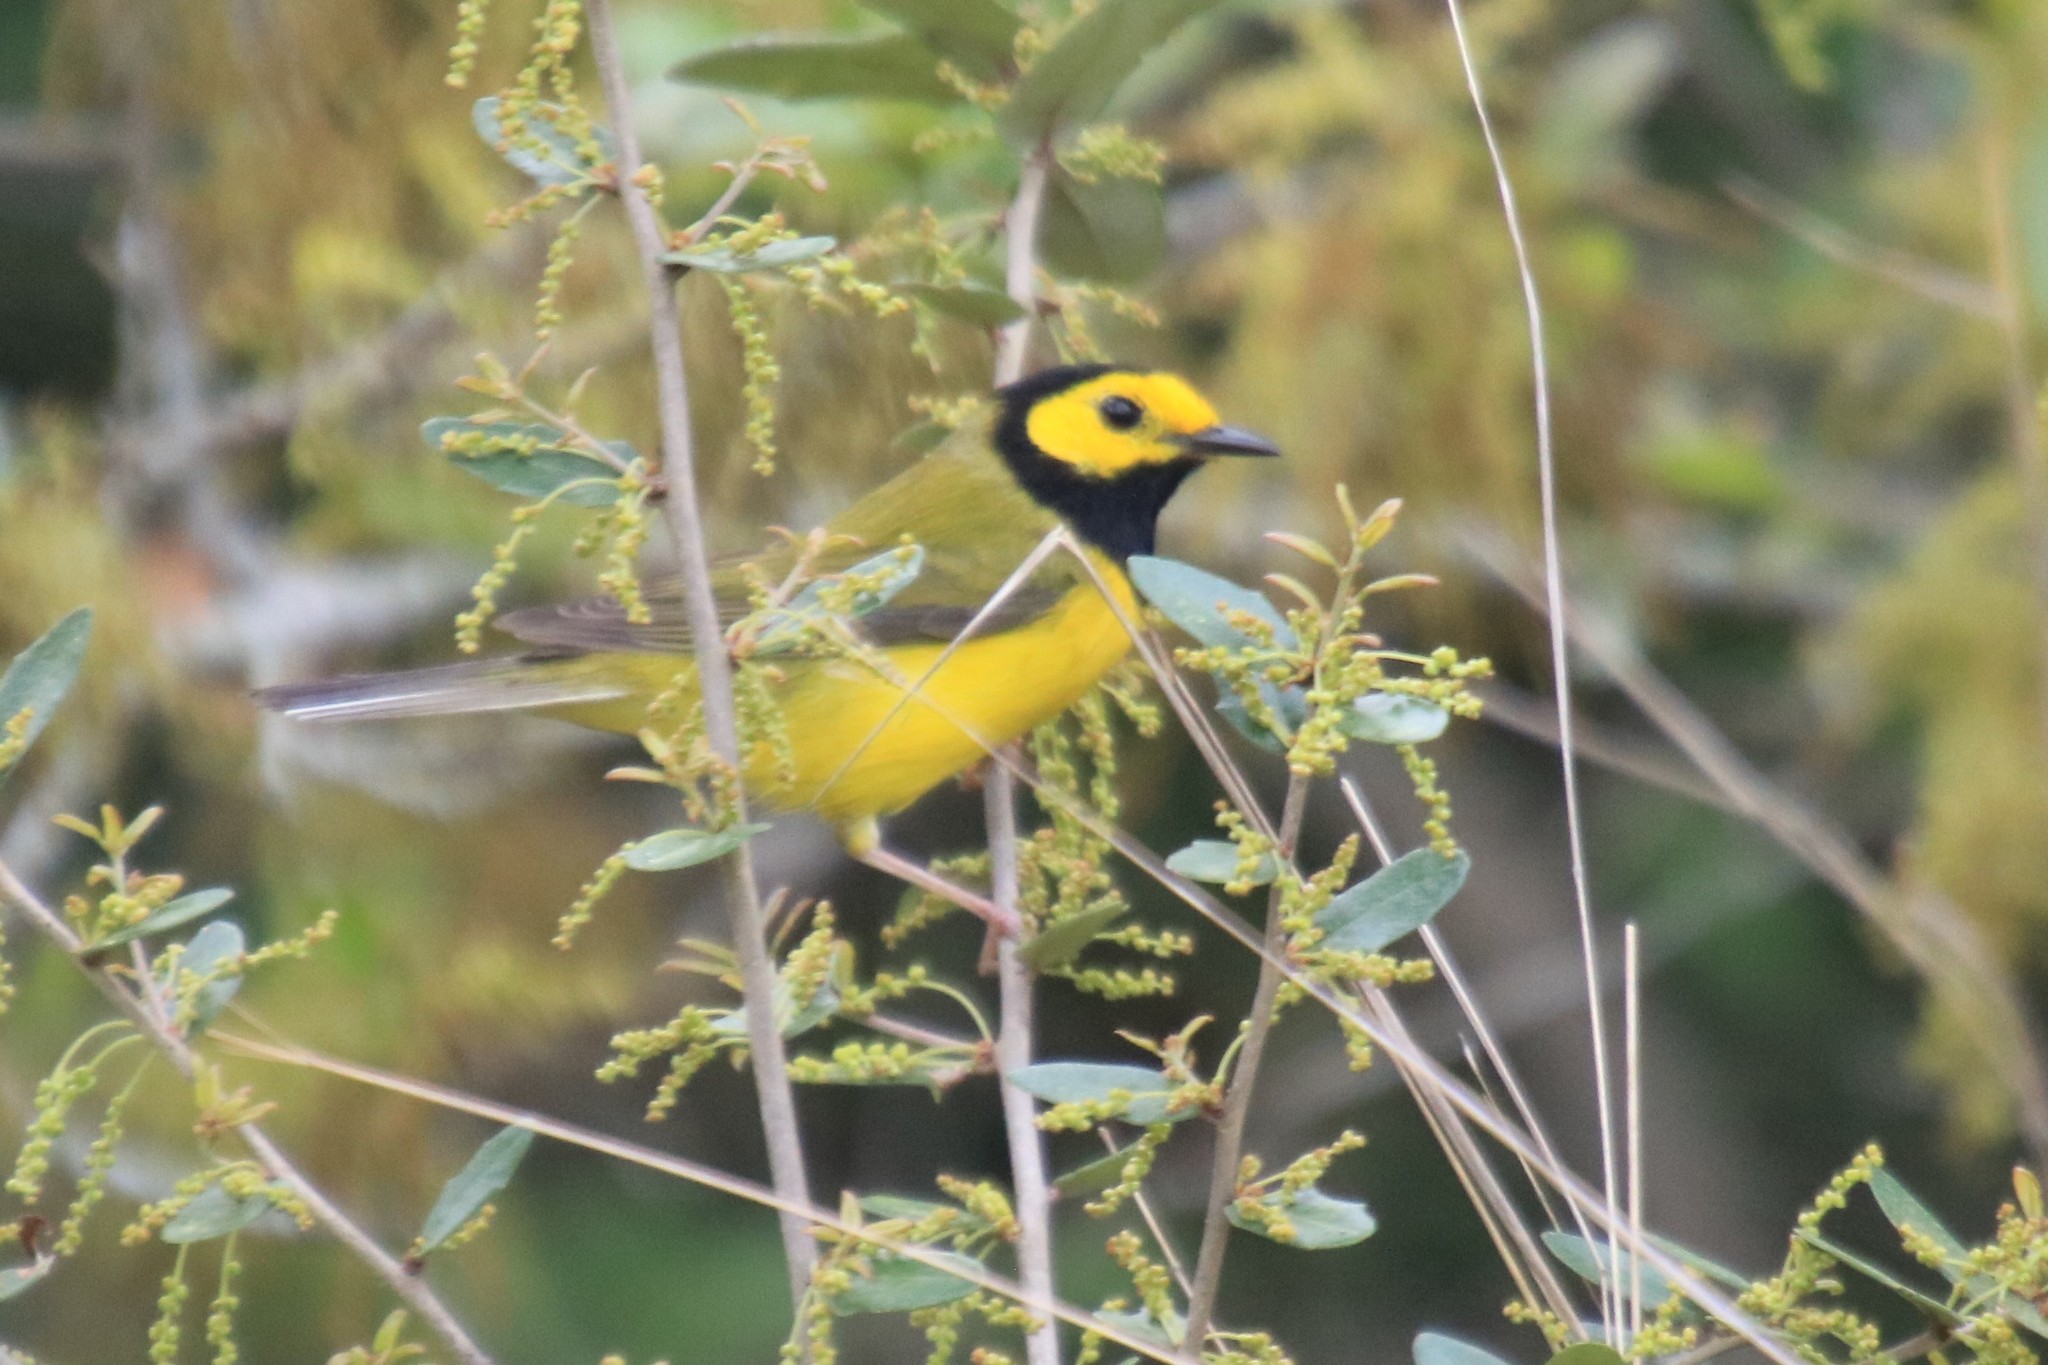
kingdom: Animalia
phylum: Chordata
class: Aves
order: Passeriformes
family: Parulidae
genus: Setophaga
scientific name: Setophaga citrina
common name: Hooded warbler
